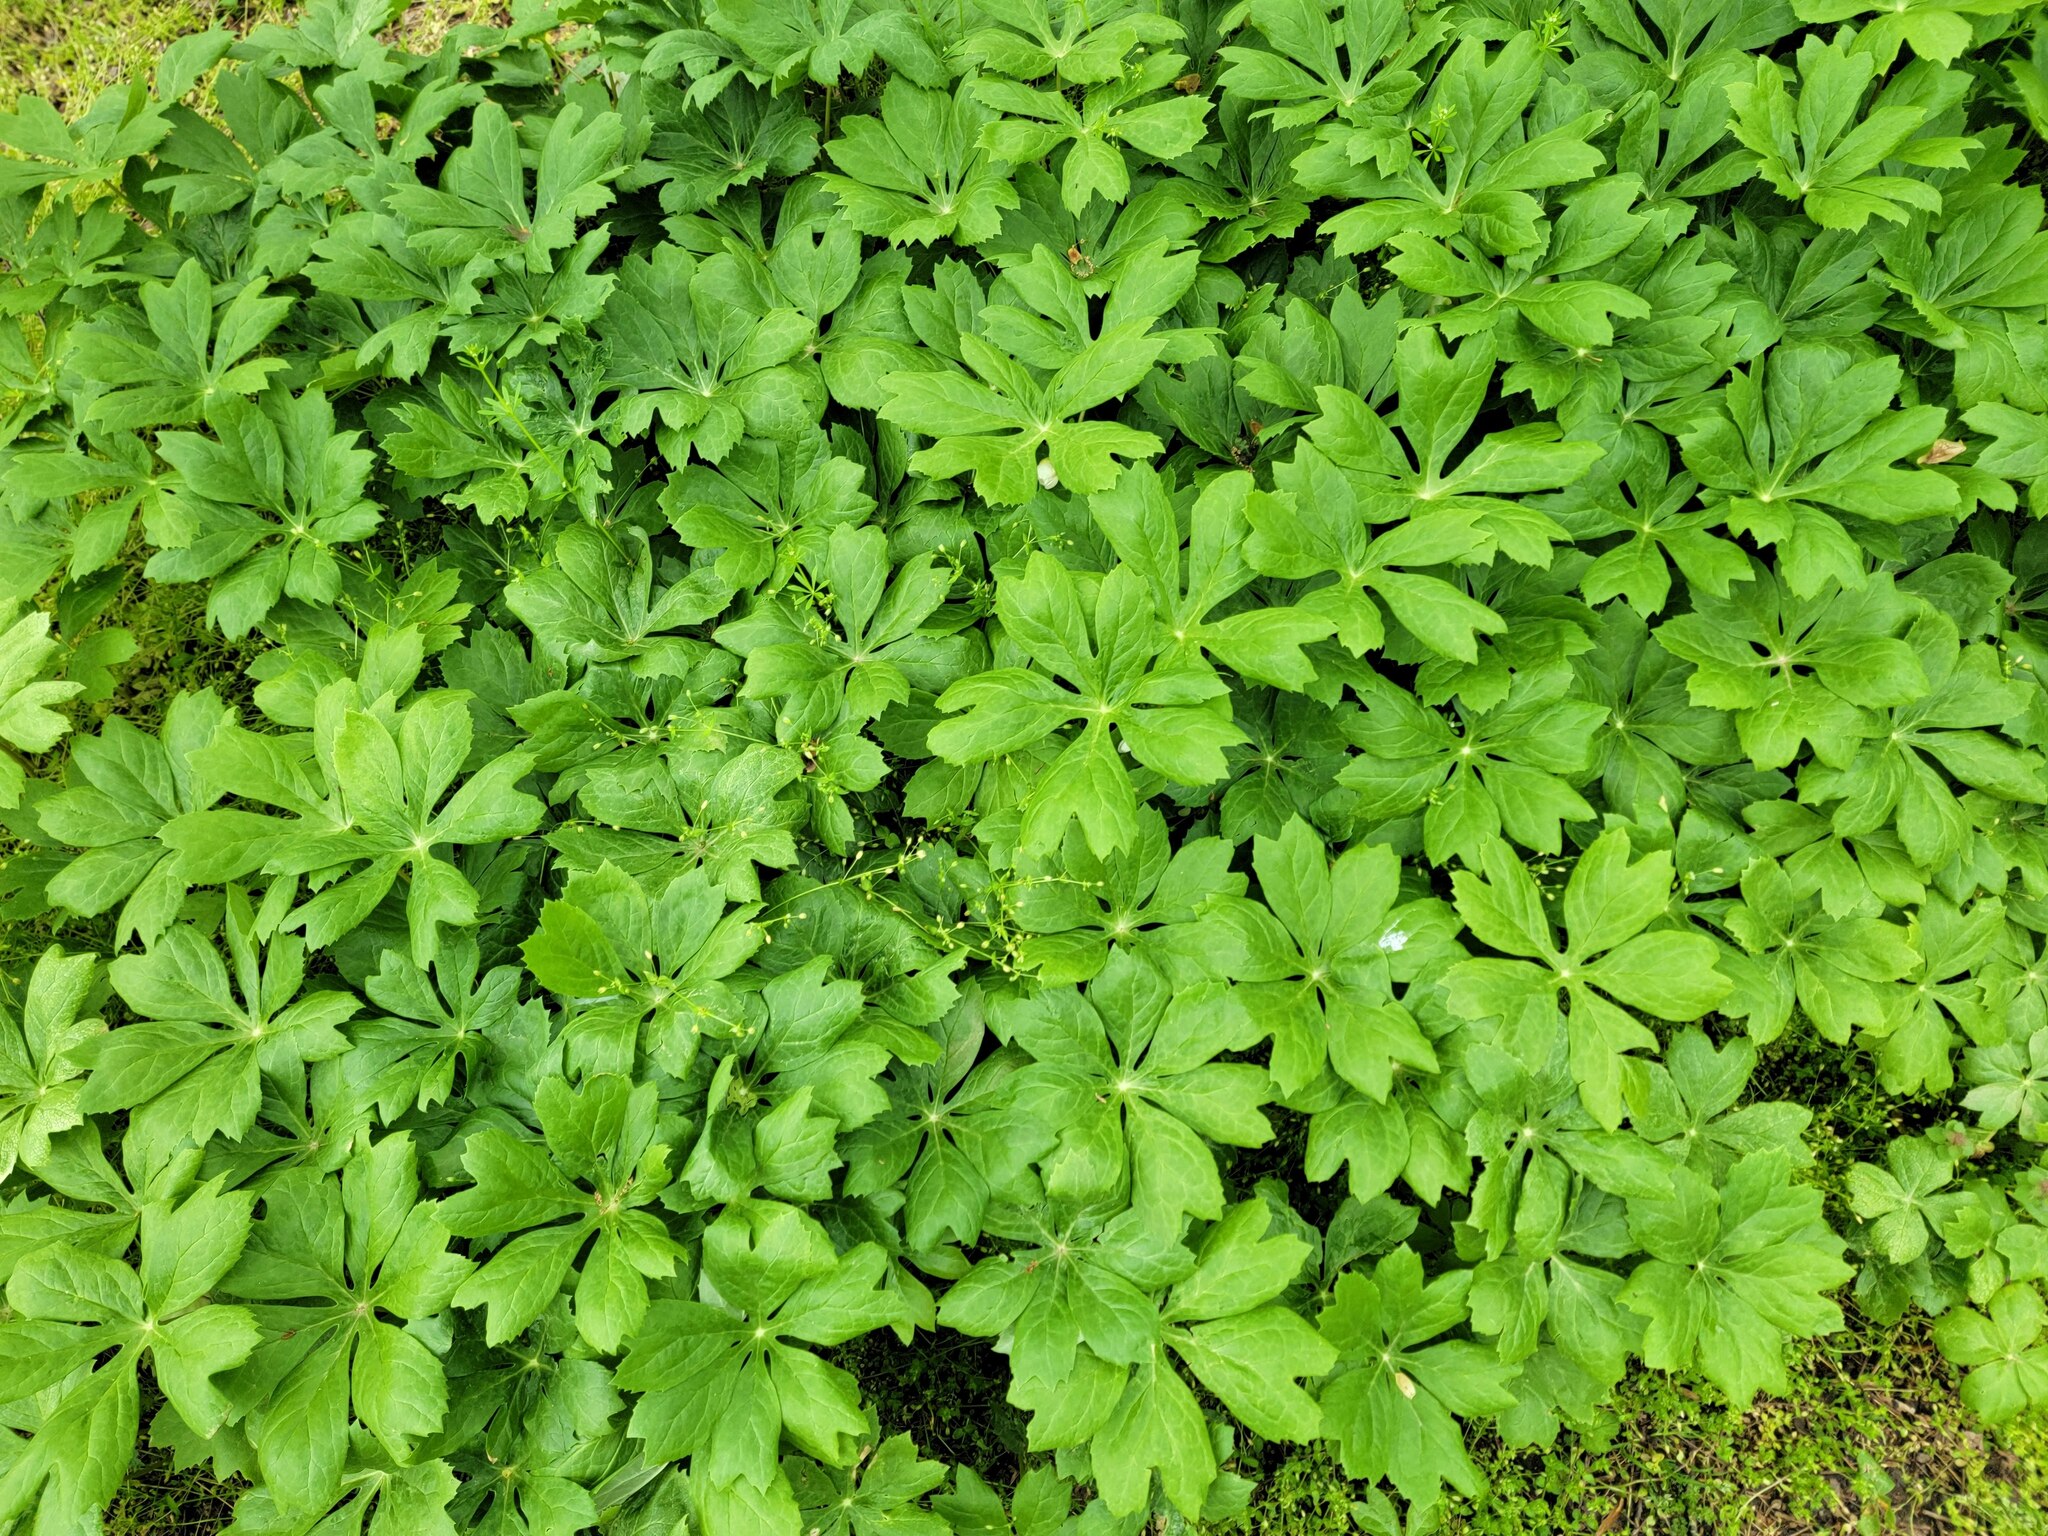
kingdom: Plantae
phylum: Tracheophyta
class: Magnoliopsida
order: Ranunculales
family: Berberidaceae
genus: Podophyllum
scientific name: Podophyllum peltatum
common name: Wild mandrake
